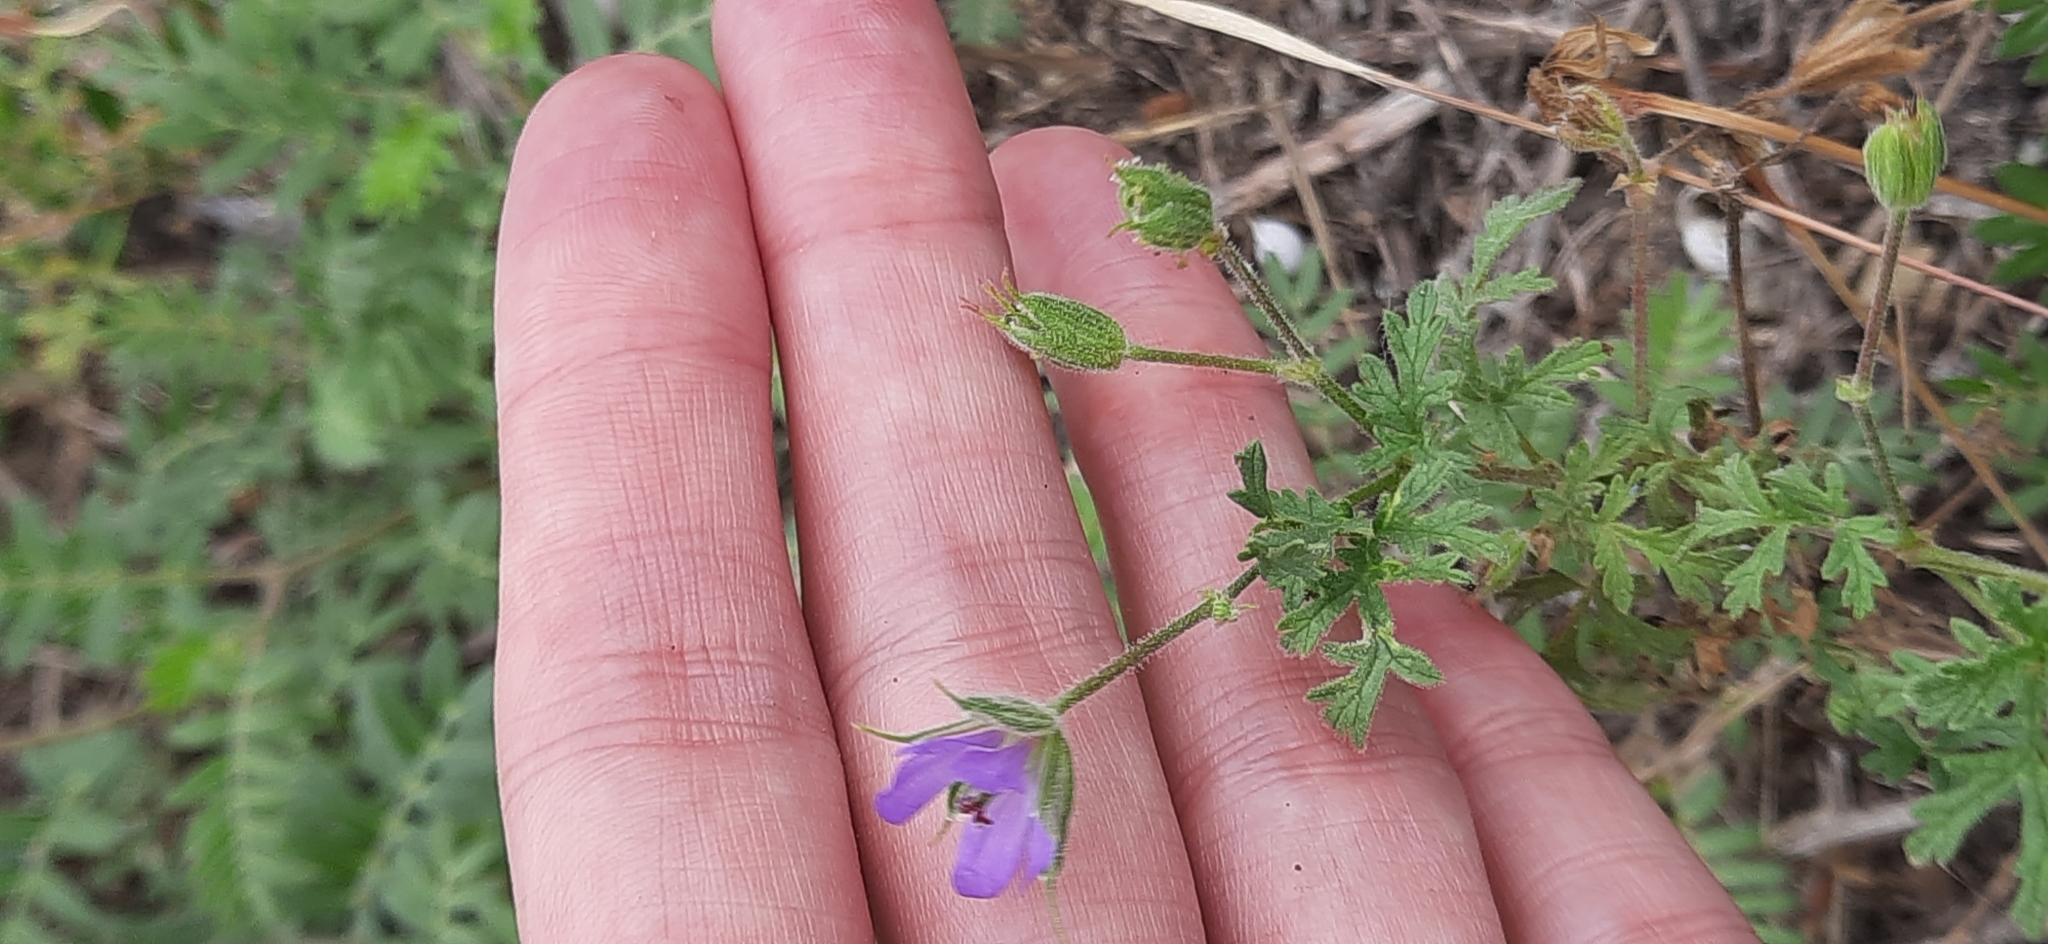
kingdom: Plantae
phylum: Tracheophyta
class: Magnoliopsida
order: Geraniales
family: Geraniaceae
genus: Erodium
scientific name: Erodium cicutarium
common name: Common stork's-bill
